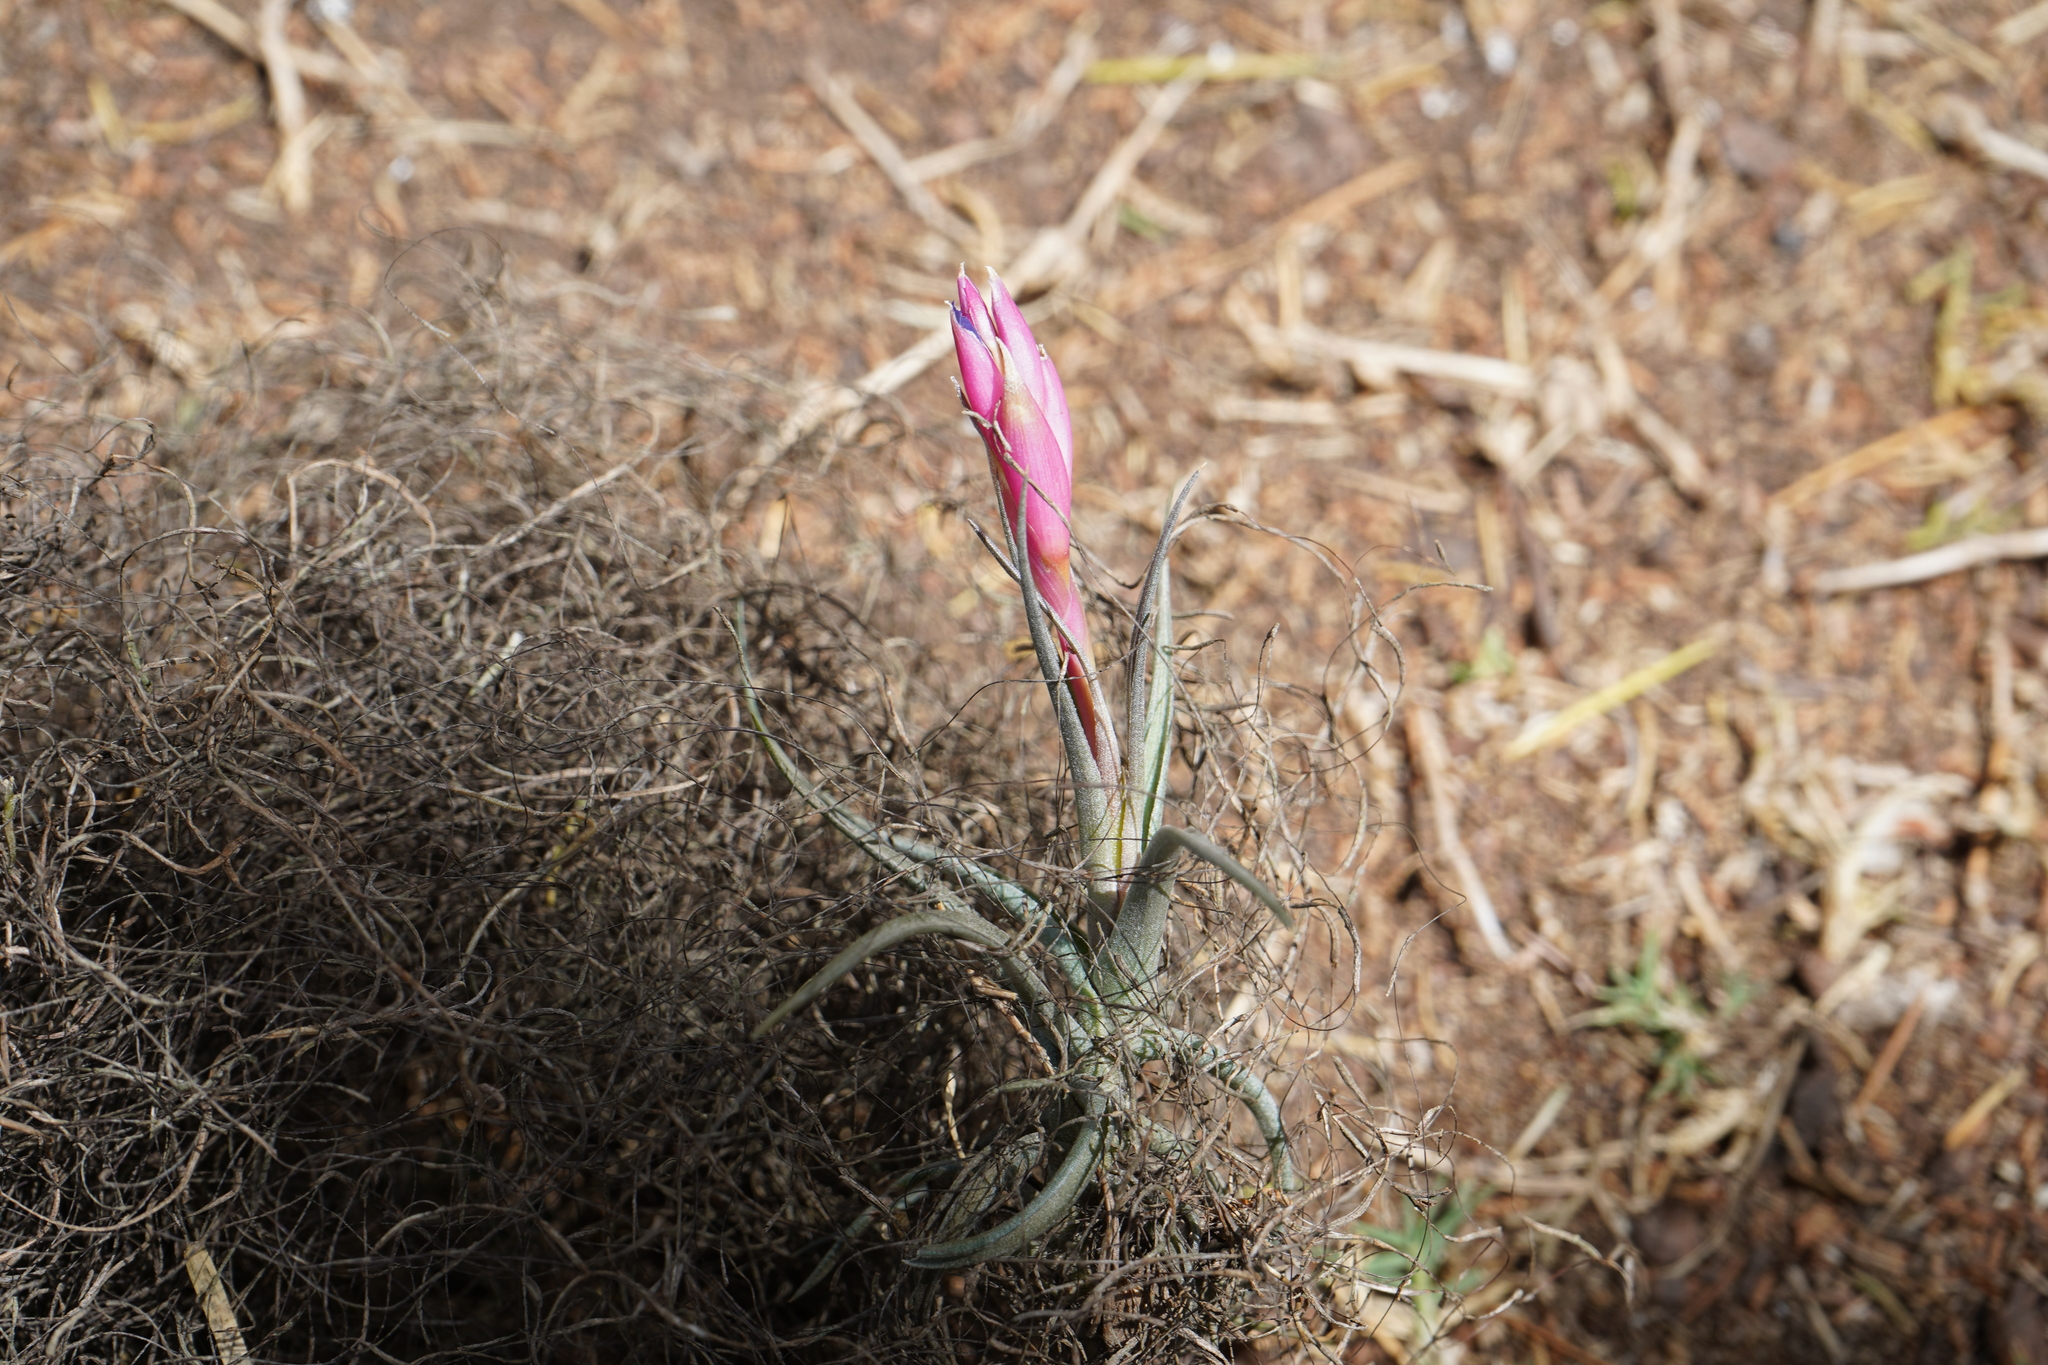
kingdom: Plantae
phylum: Tracheophyta
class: Liliopsida
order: Poales
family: Bromeliaceae
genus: Tillandsia
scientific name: Tillandsia aeranthos
